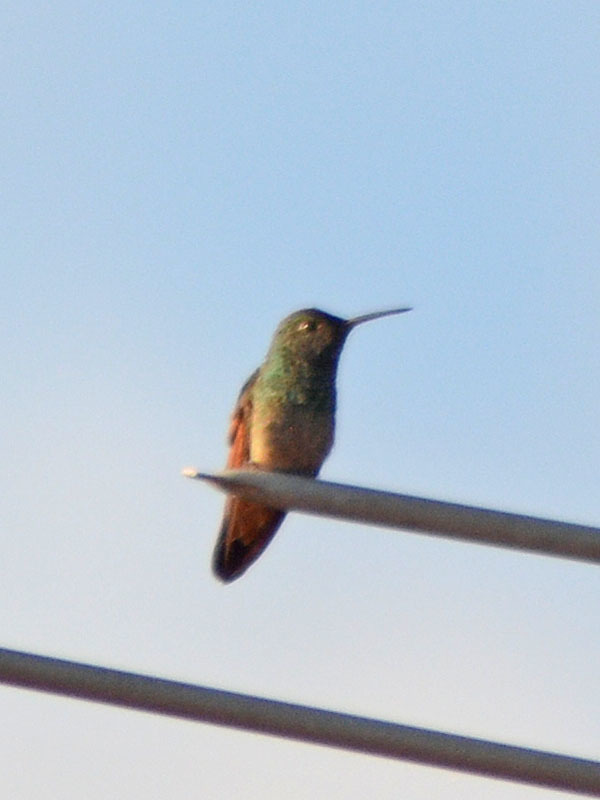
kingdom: Animalia
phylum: Chordata
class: Aves
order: Apodiformes
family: Trochilidae
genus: Saucerottia
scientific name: Saucerottia beryllina
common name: Berylline hummingbird
